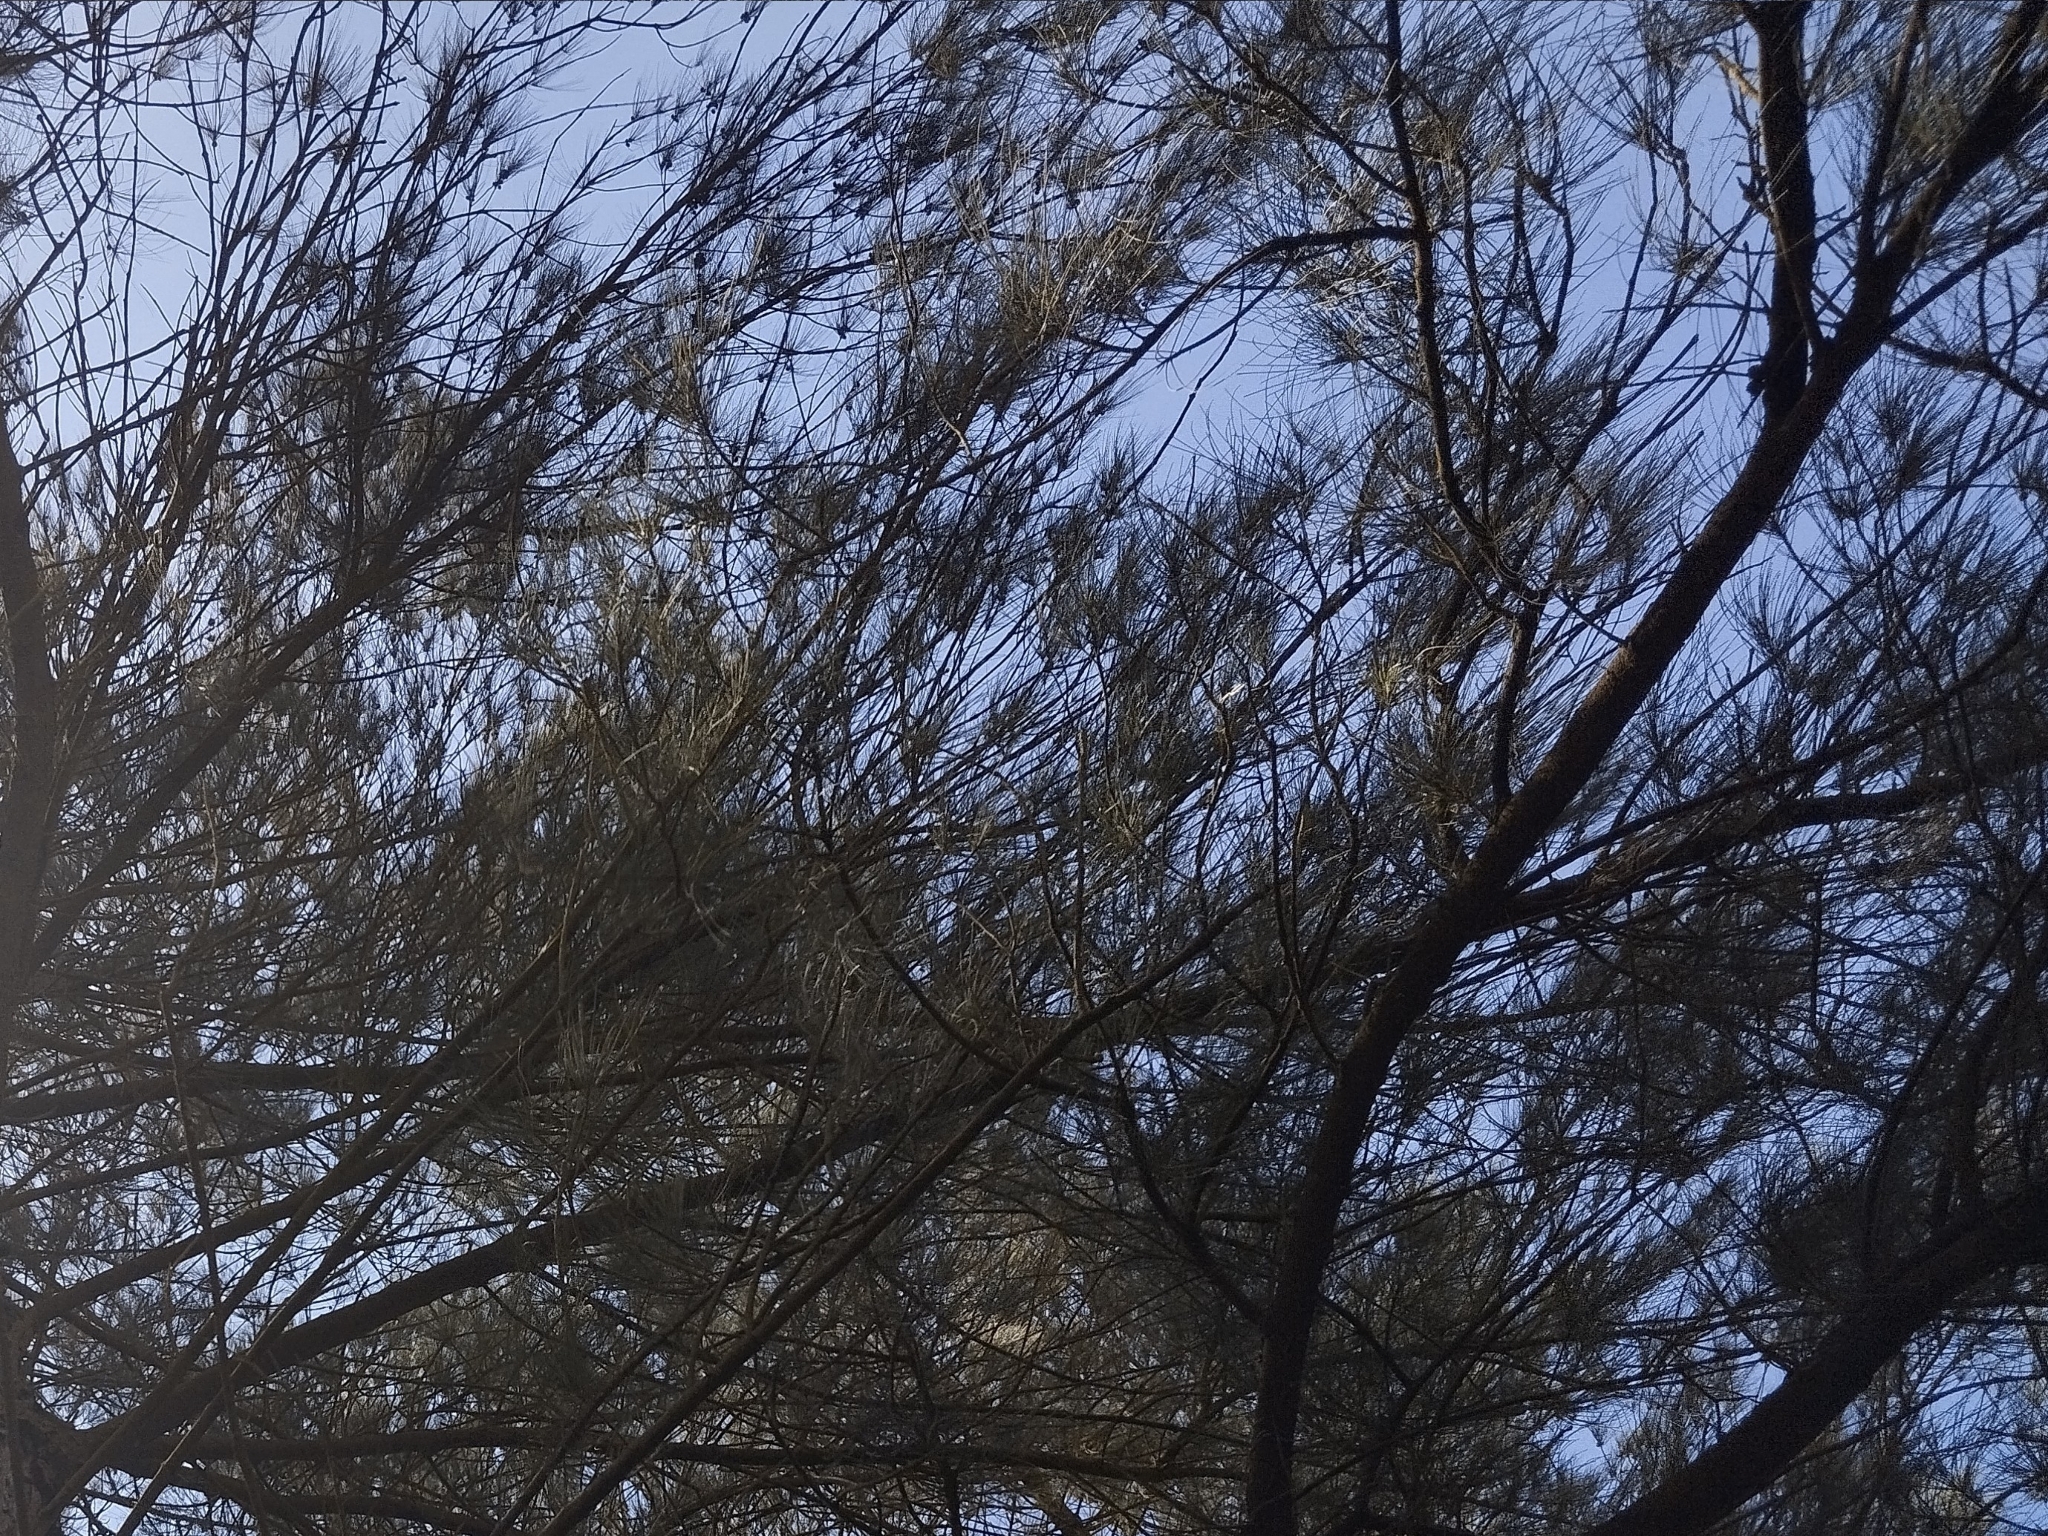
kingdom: Plantae
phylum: Tracheophyta
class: Magnoliopsida
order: Fagales
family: Casuarinaceae
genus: Casuarina
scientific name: Casuarina equisetifolia
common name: Beach sheoak
